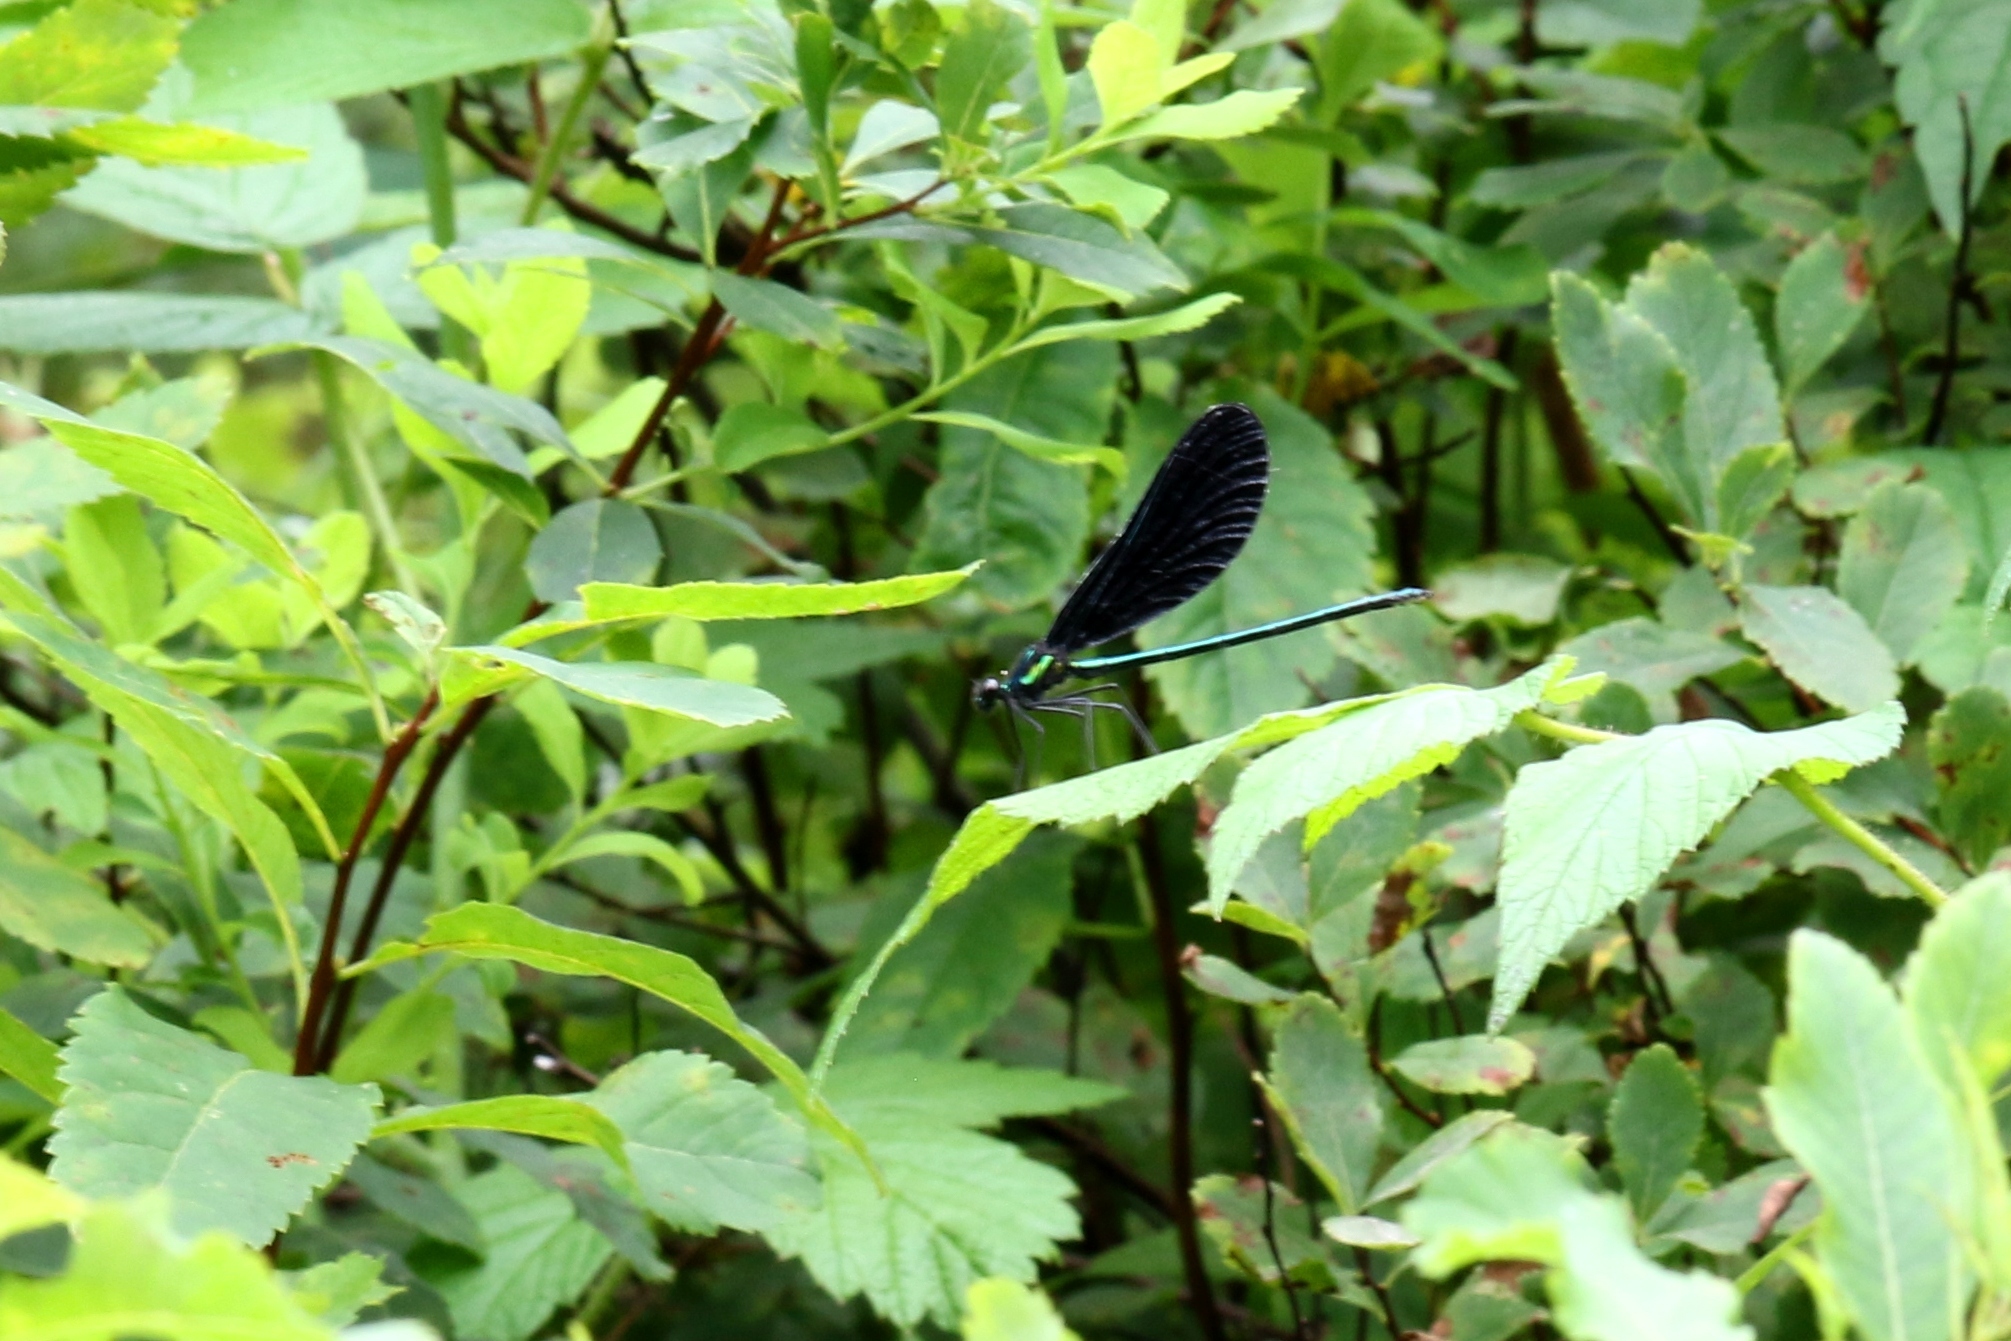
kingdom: Animalia
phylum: Arthropoda
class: Insecta
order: Odonata
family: Calopterygidae
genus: Calopteryx
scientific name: Calopteryx maculata
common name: Ebony jewelwing
